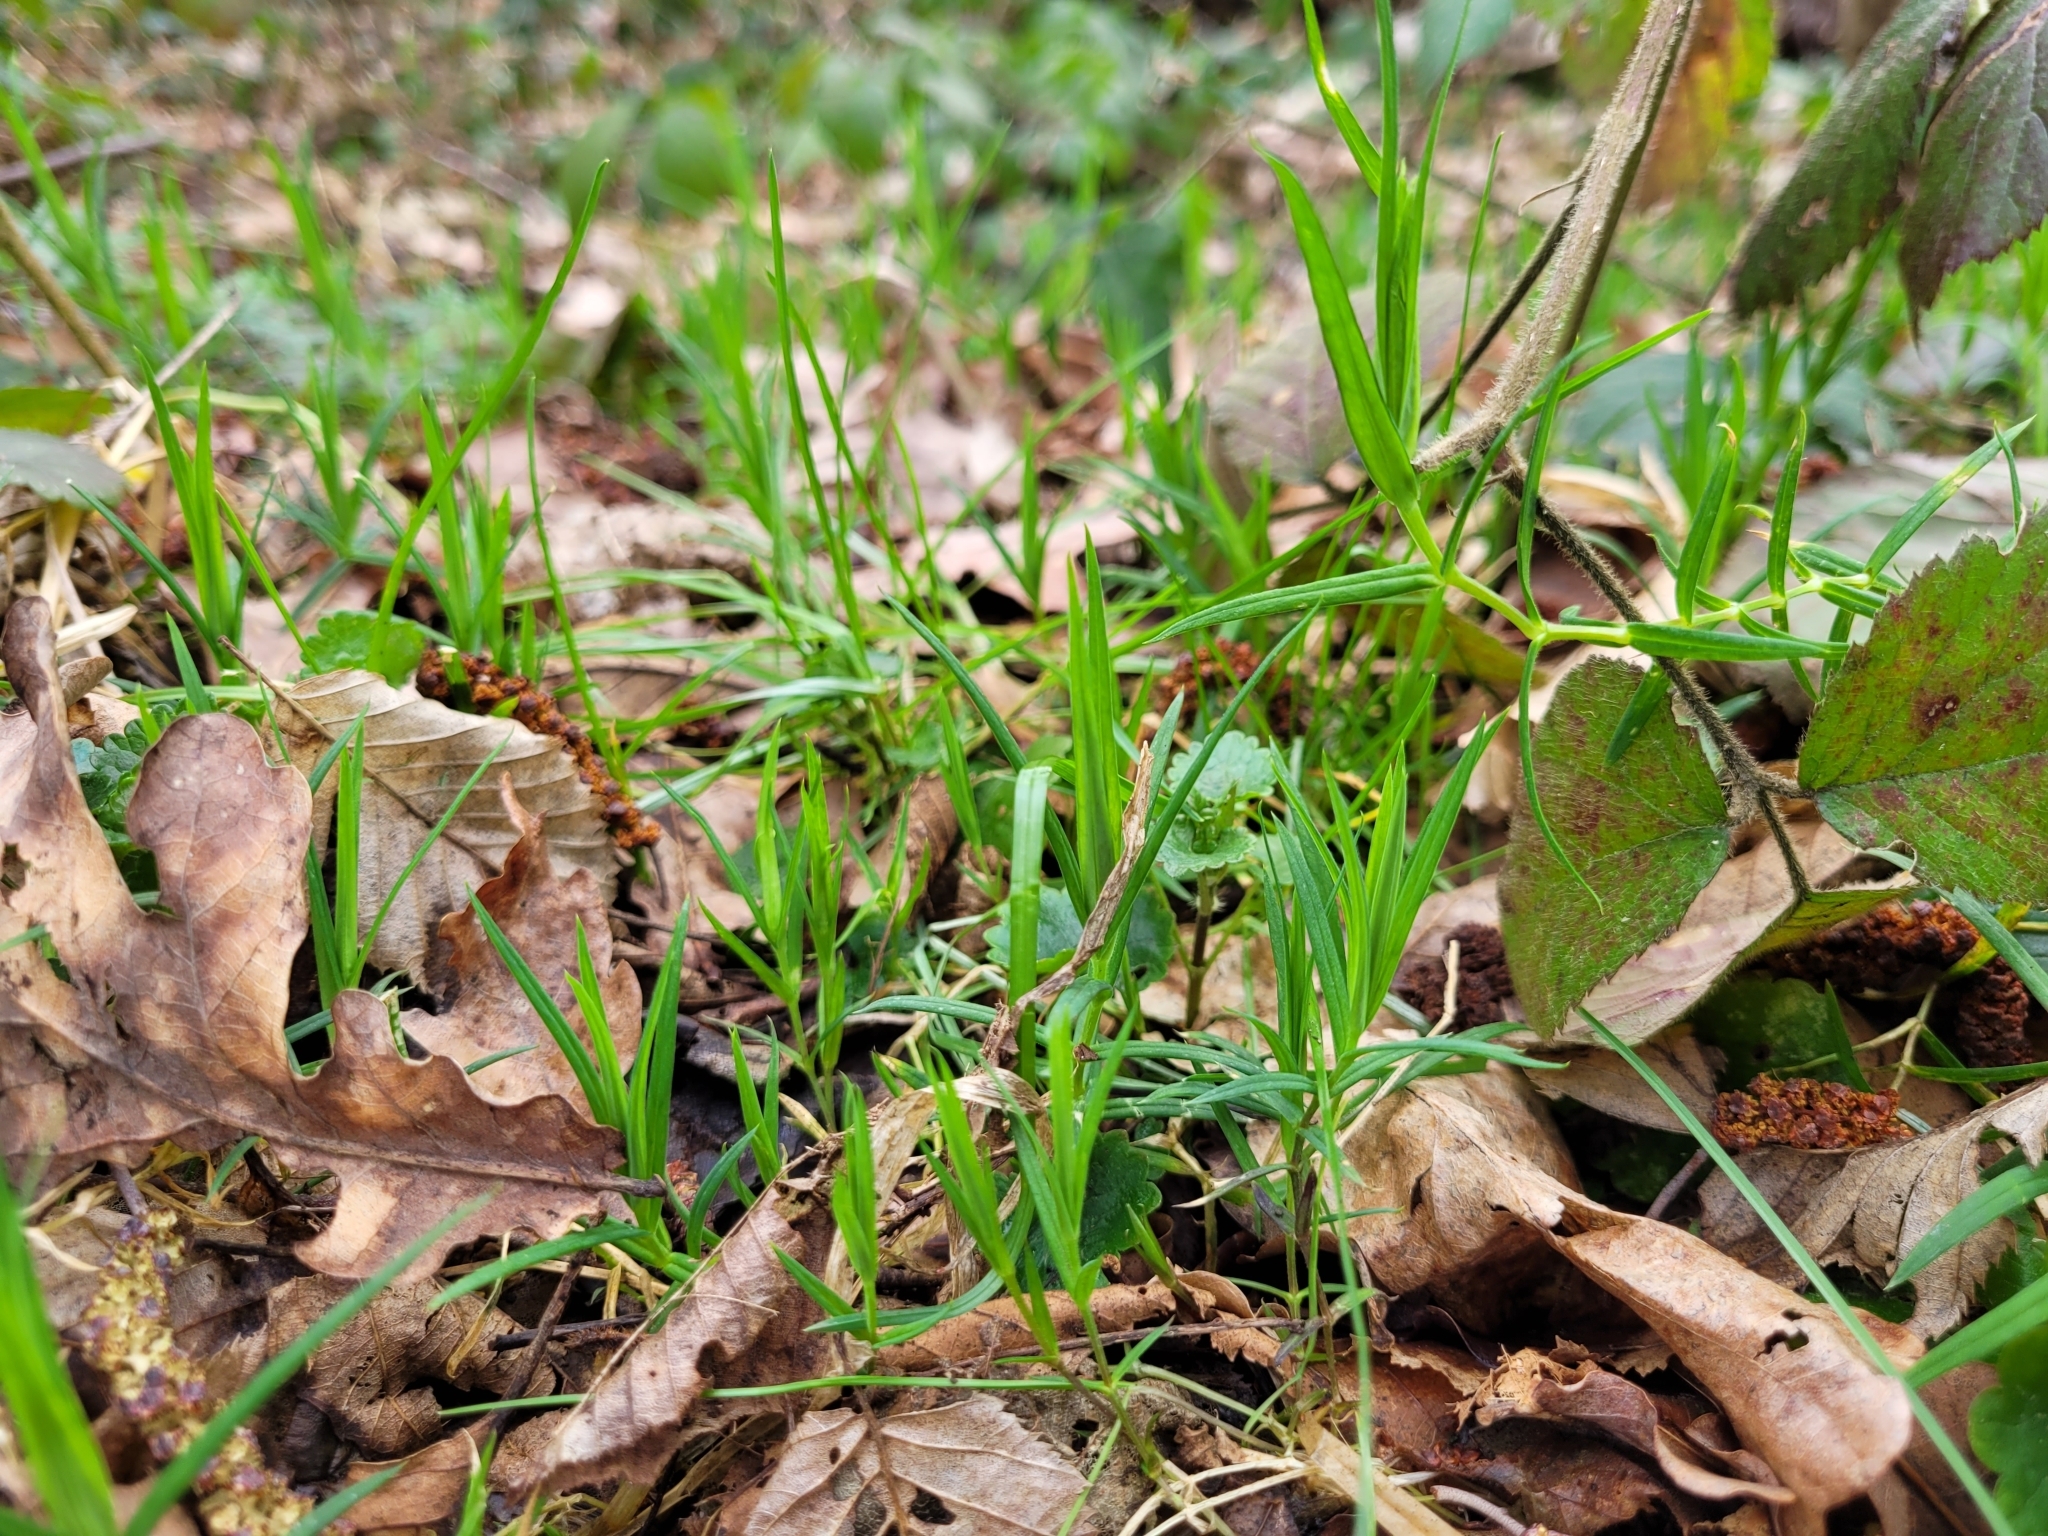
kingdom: Plantae
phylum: Tracheophyta
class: Magnoliopsida
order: Caryophyllales
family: Caryophyllaceae
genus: Rabelera
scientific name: Rabelera holostea
